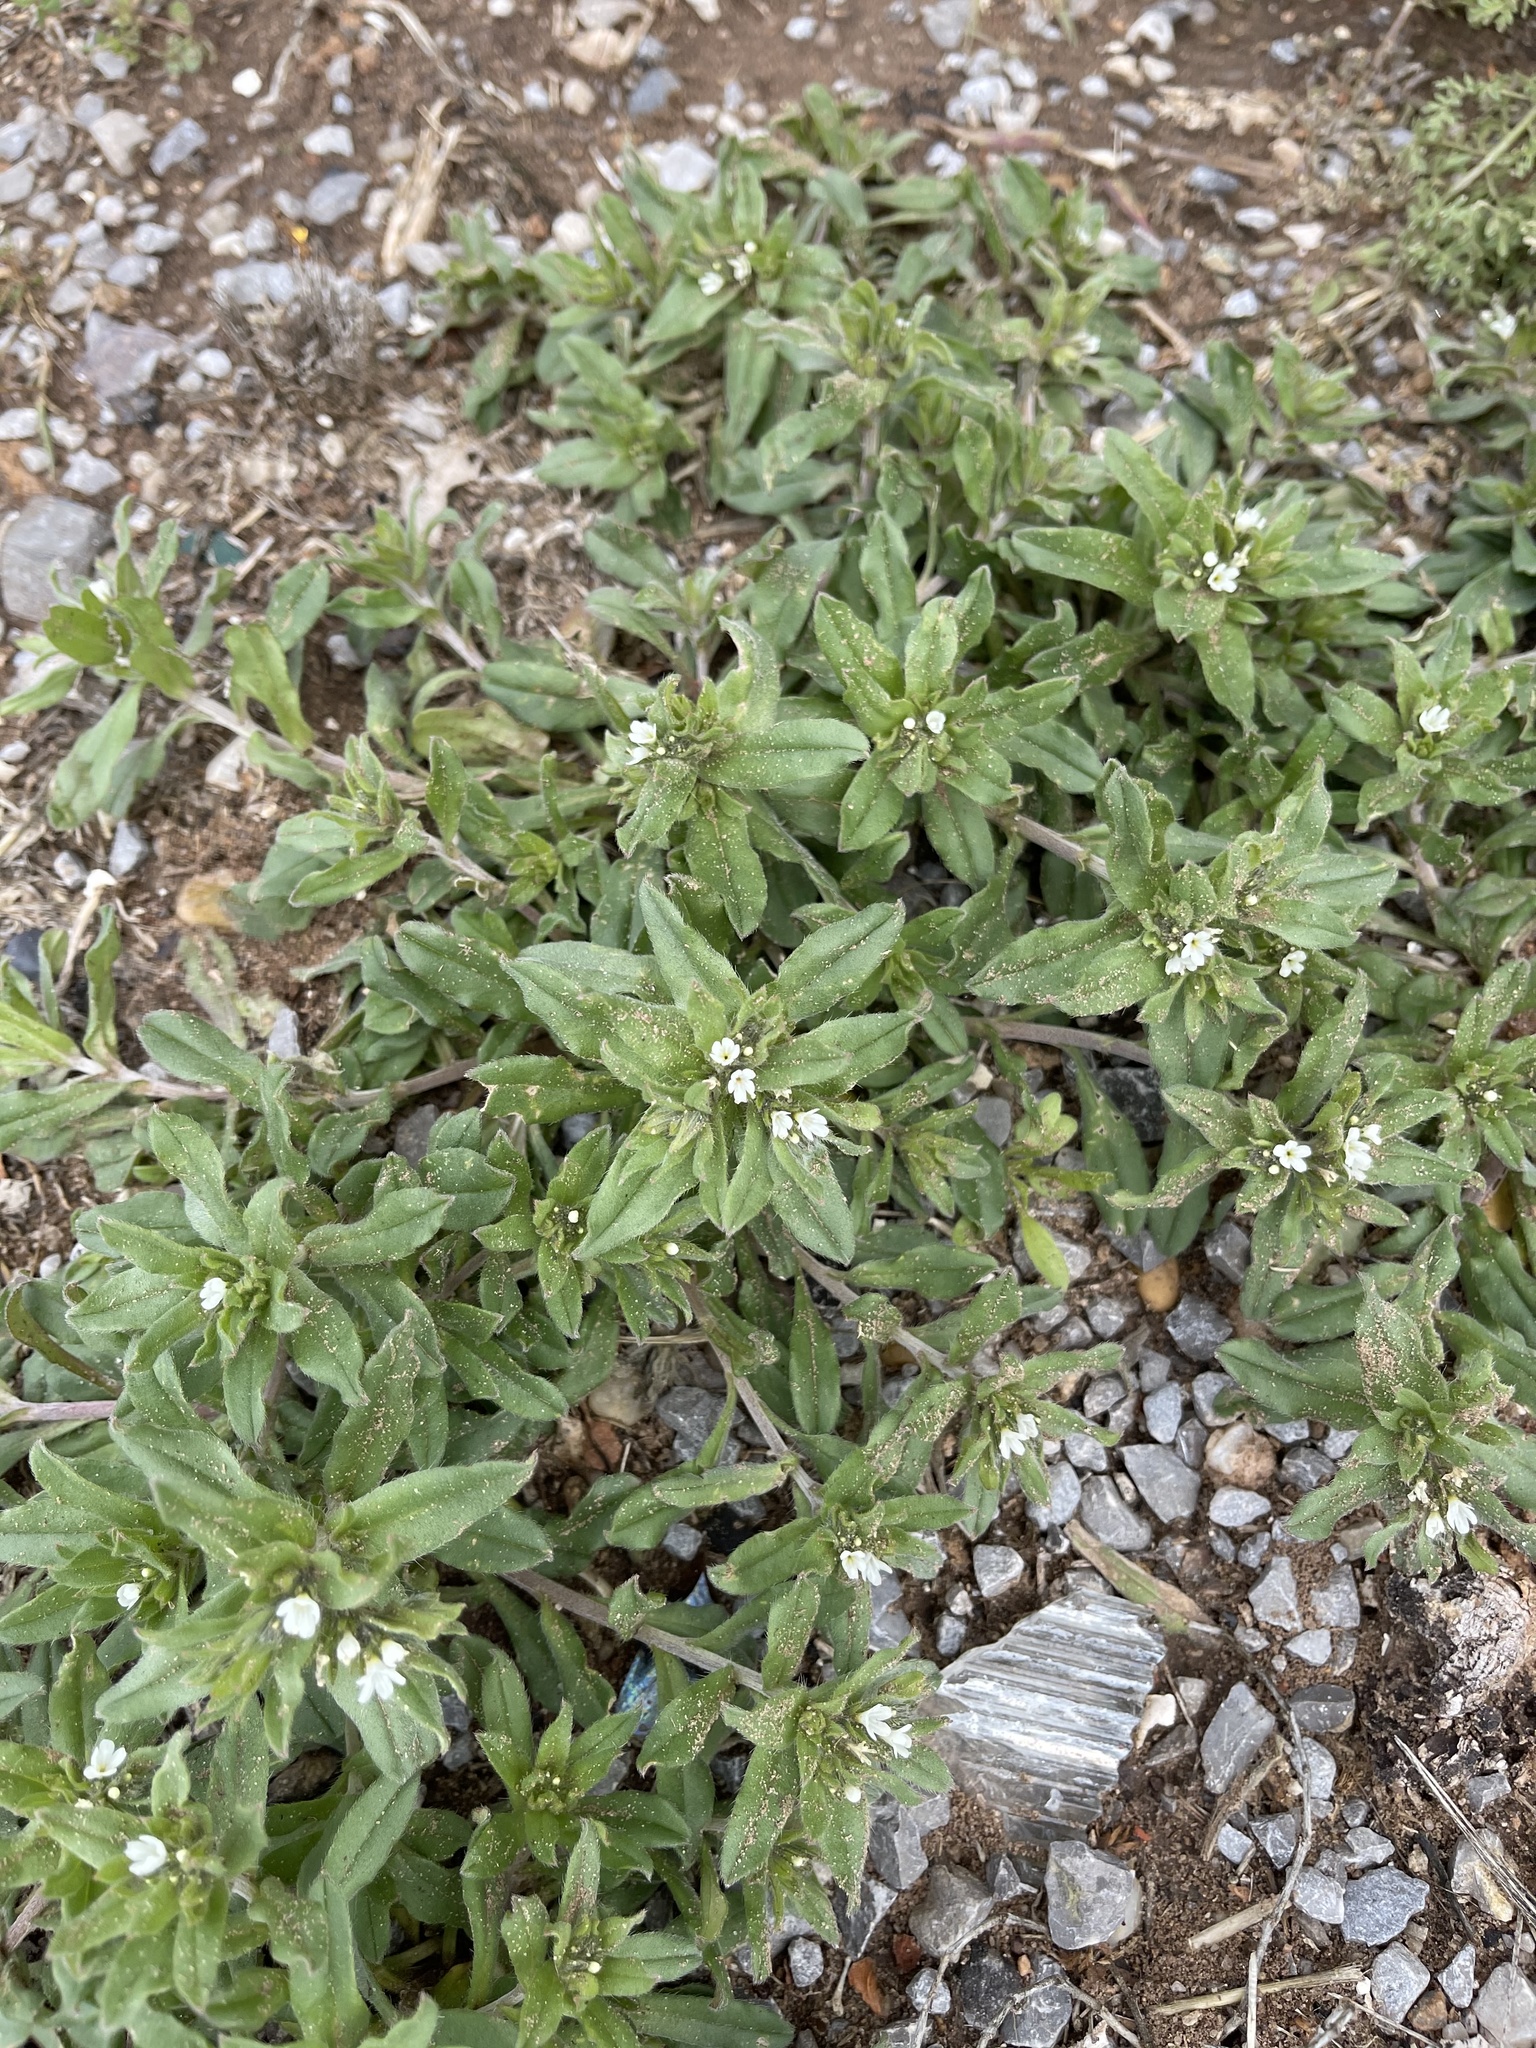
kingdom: Plantae
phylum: Tracheophyta
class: Magnoliopsida
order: Boraginales
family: Boraginaceae
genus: Buglossoides
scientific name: Buglossoides arvensis
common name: Corn gromwell
